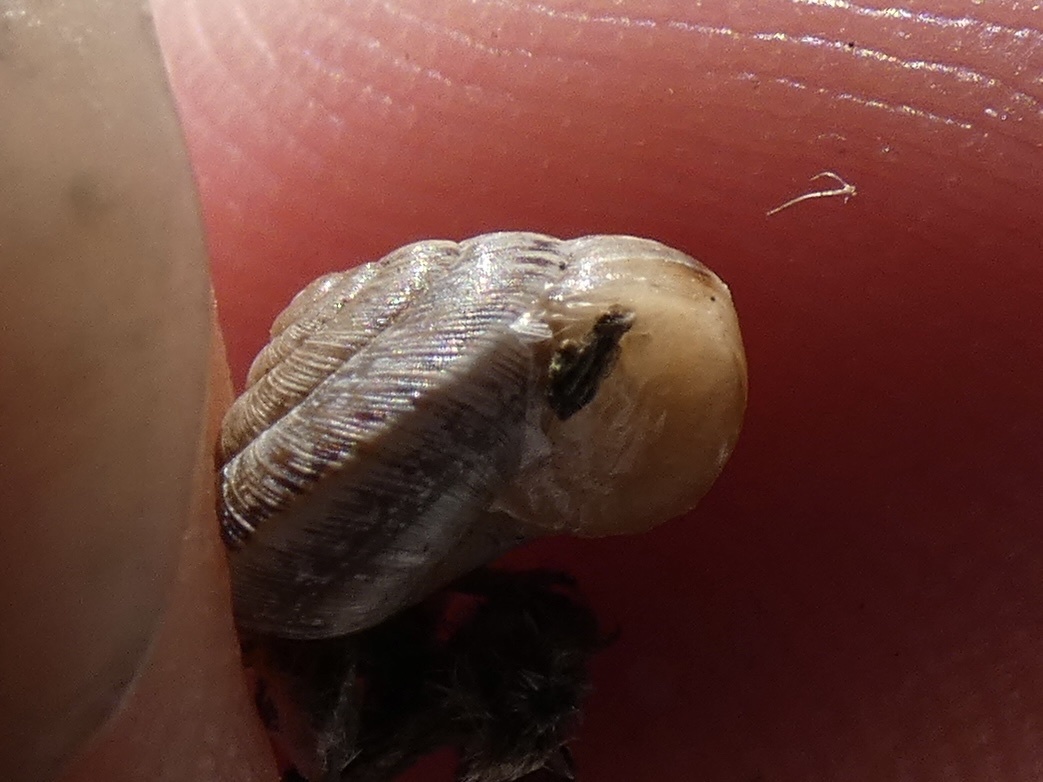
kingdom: Animalia
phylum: Mollusca
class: Gastropoda
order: Stylommatophora
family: Geomitridae
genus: Xeroplexa
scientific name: Xeroplexa intersecta
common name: Wrinkled snail
